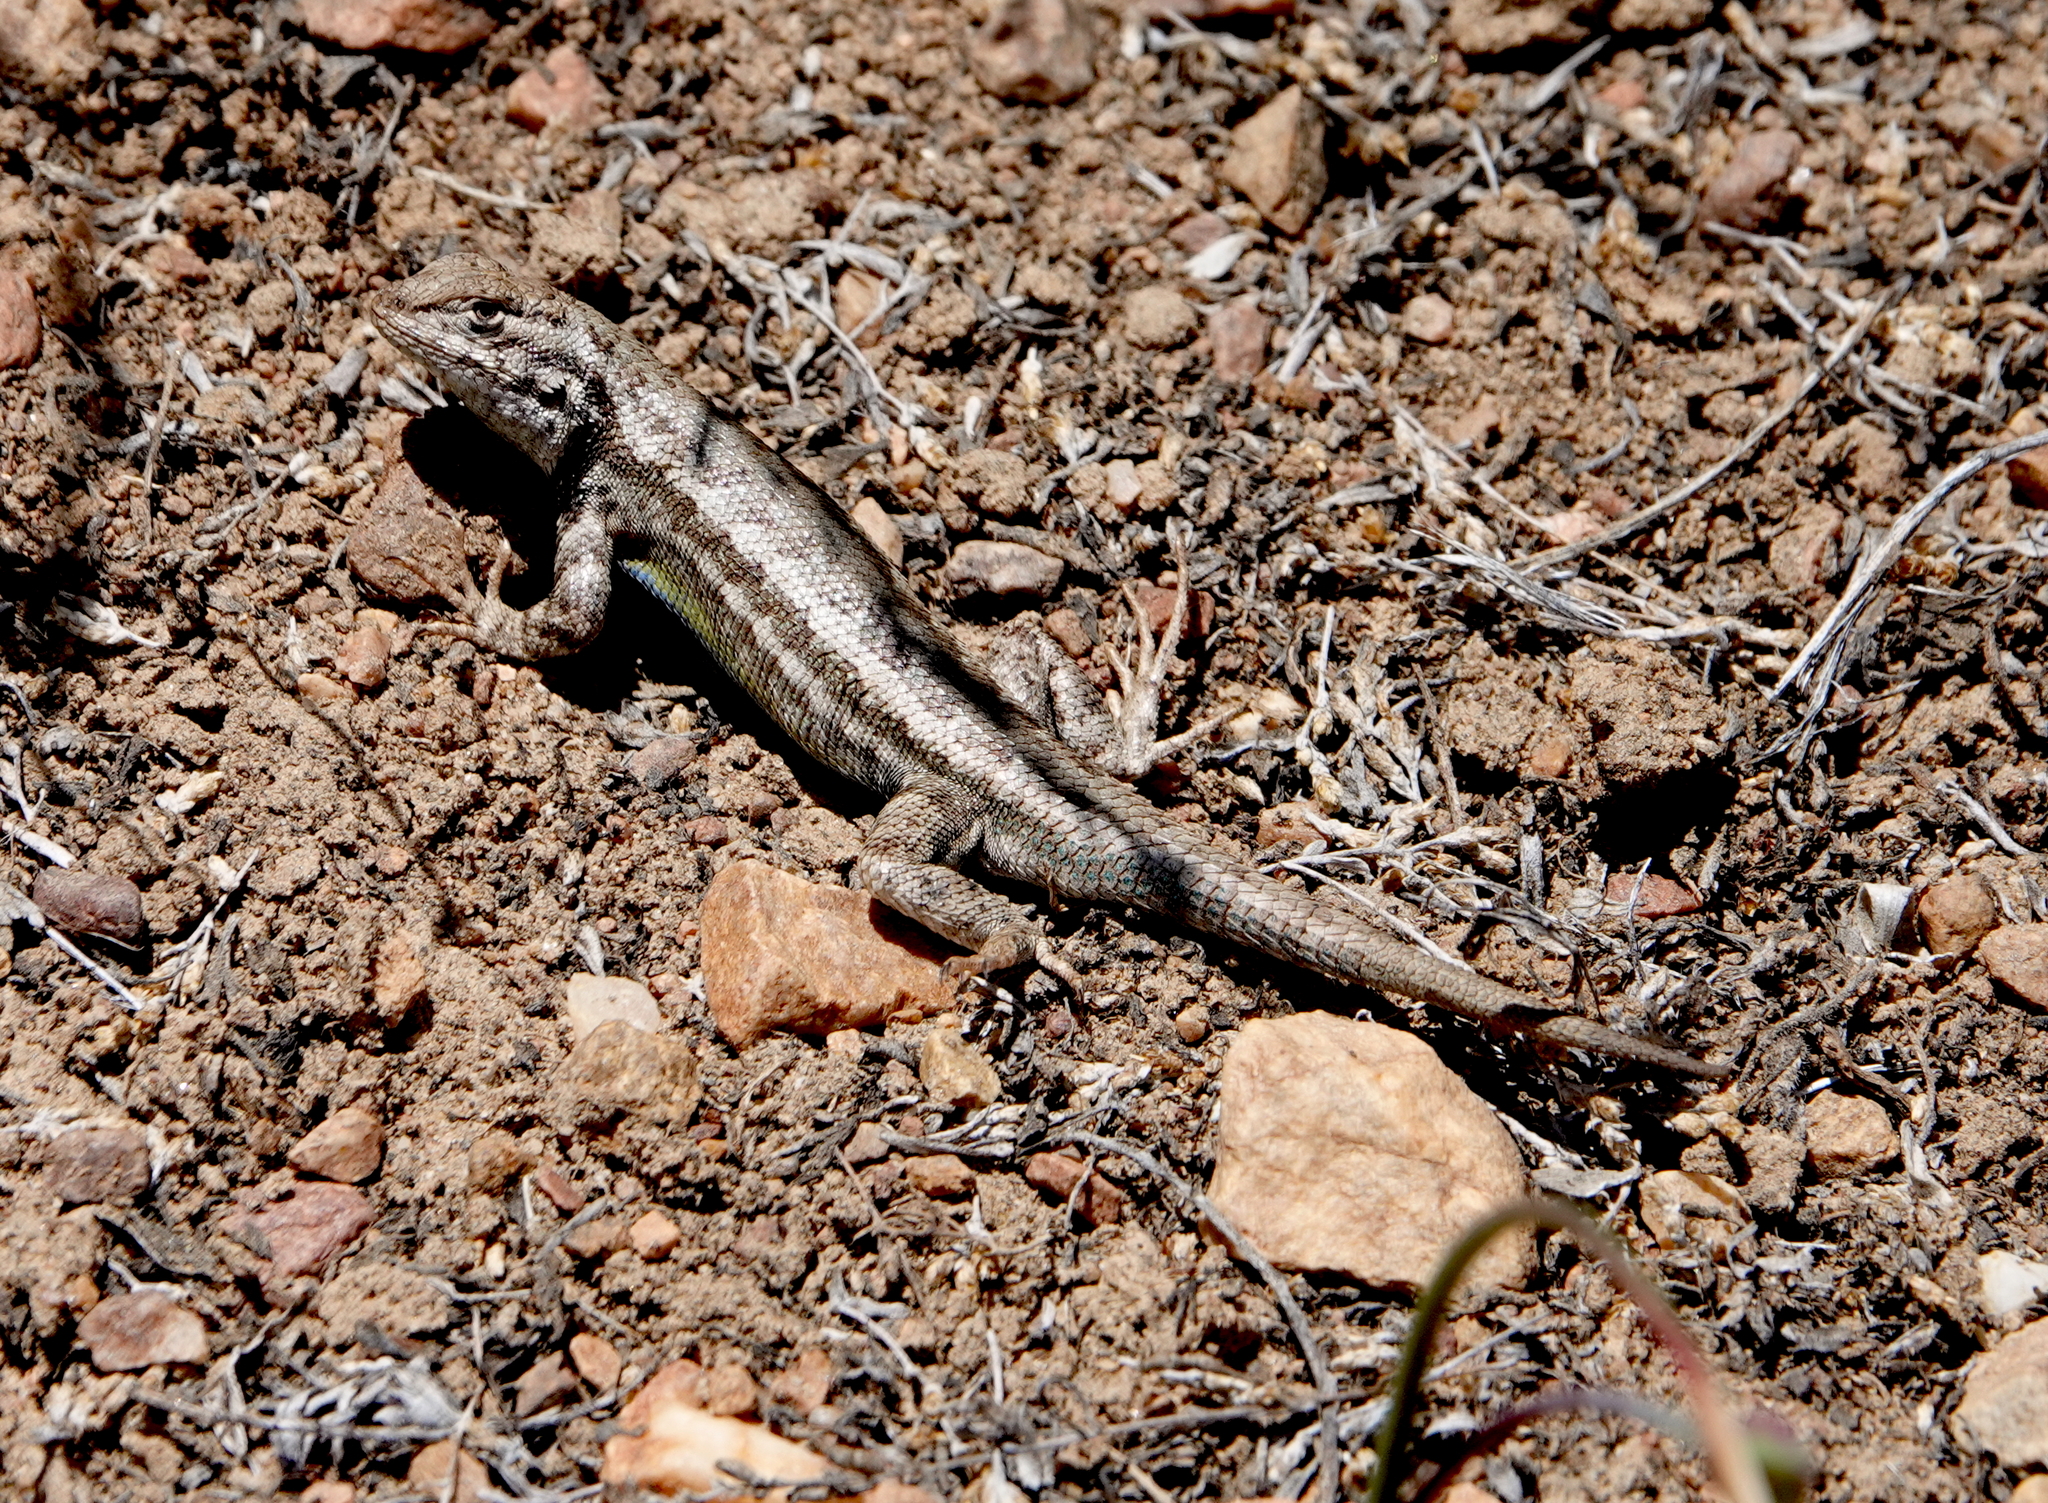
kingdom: Animalia
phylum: Chordata
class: Squamata
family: Phrynosomatidae
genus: Sceloporus
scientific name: Sceloporus graciosus
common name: Sagebrush lizard
